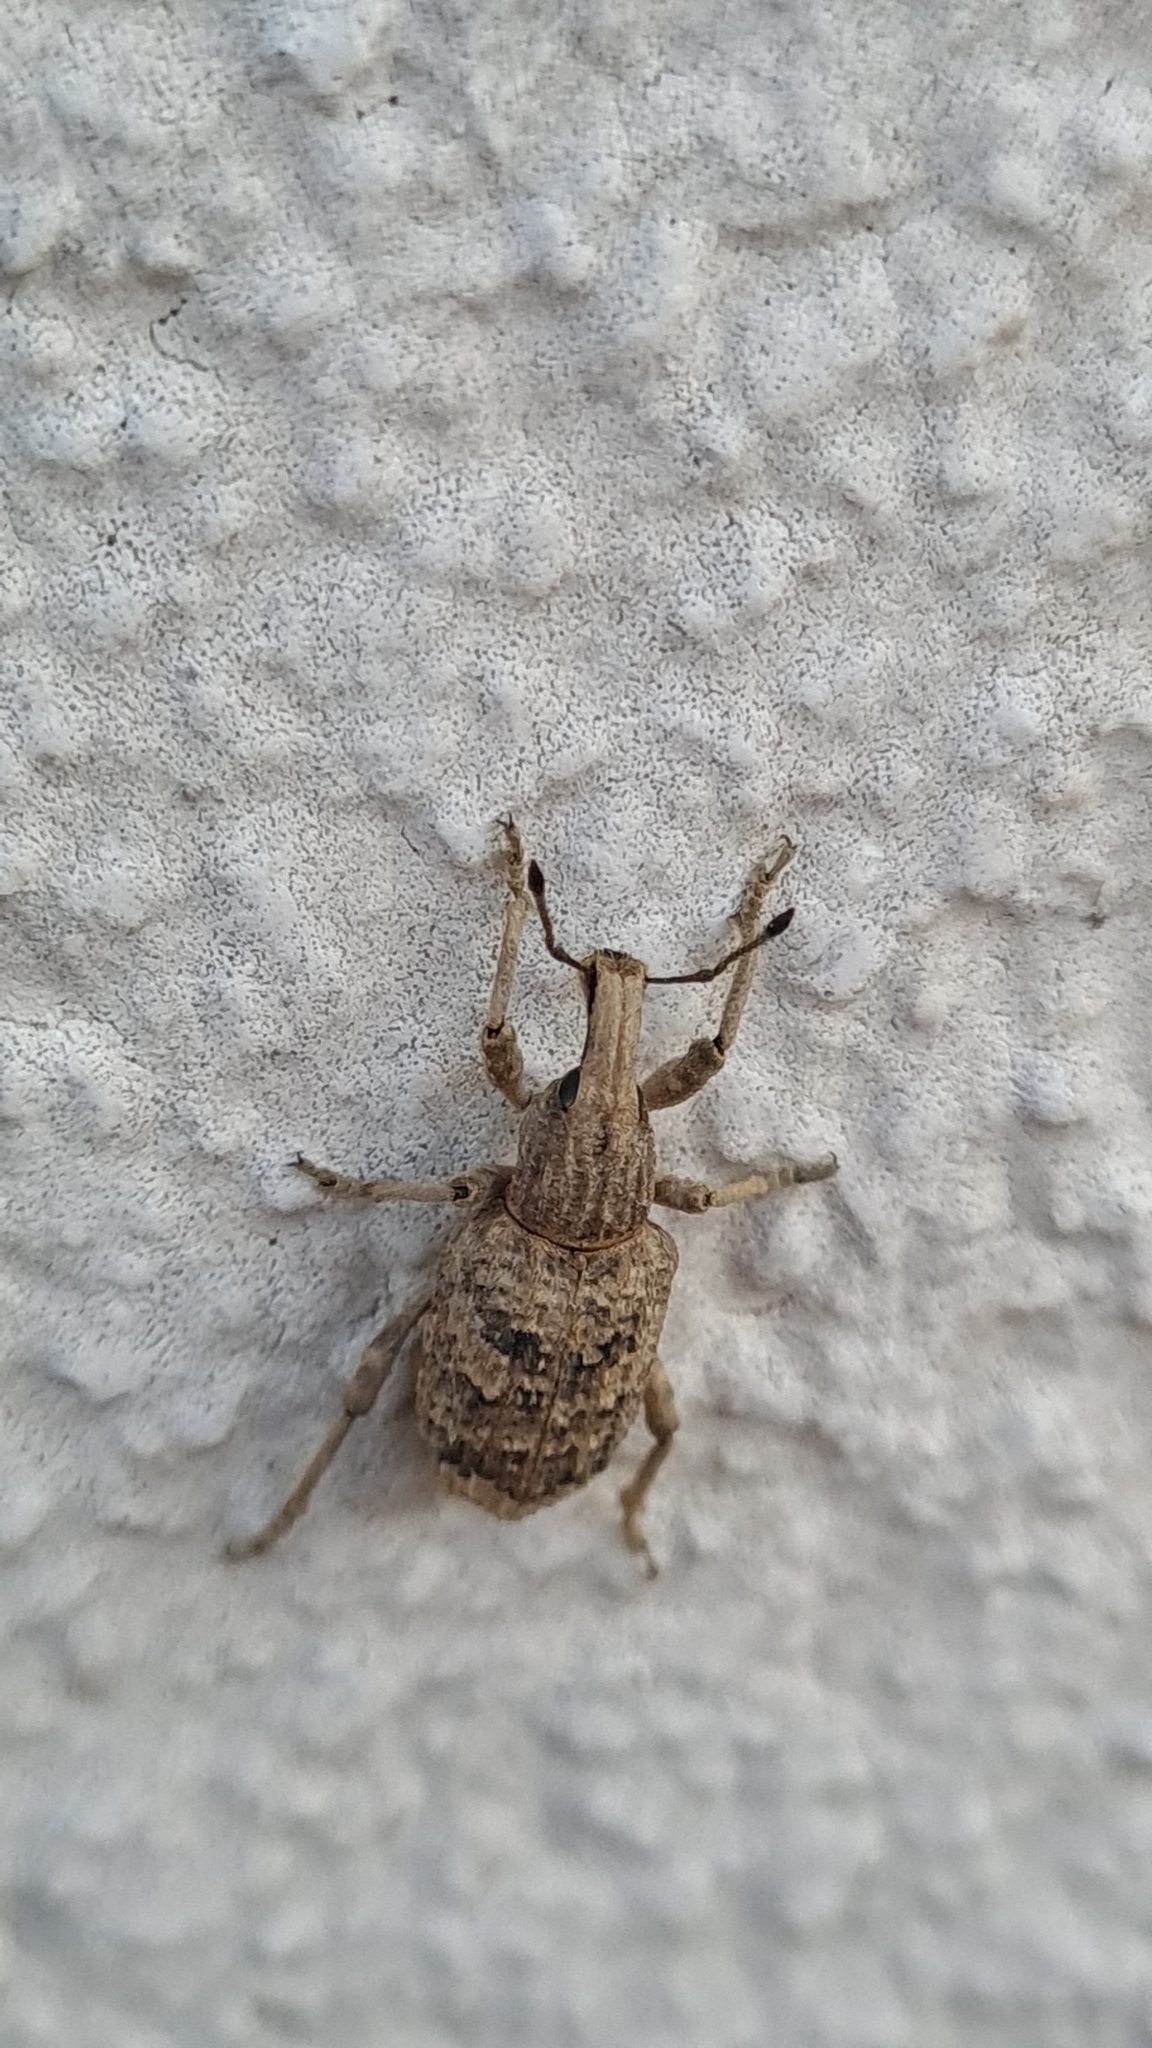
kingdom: Animalia
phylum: Arthropoda
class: Insecta
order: Coleoptera
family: Curculionidae
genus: Rhytideres
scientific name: Rhytideres plicatus
